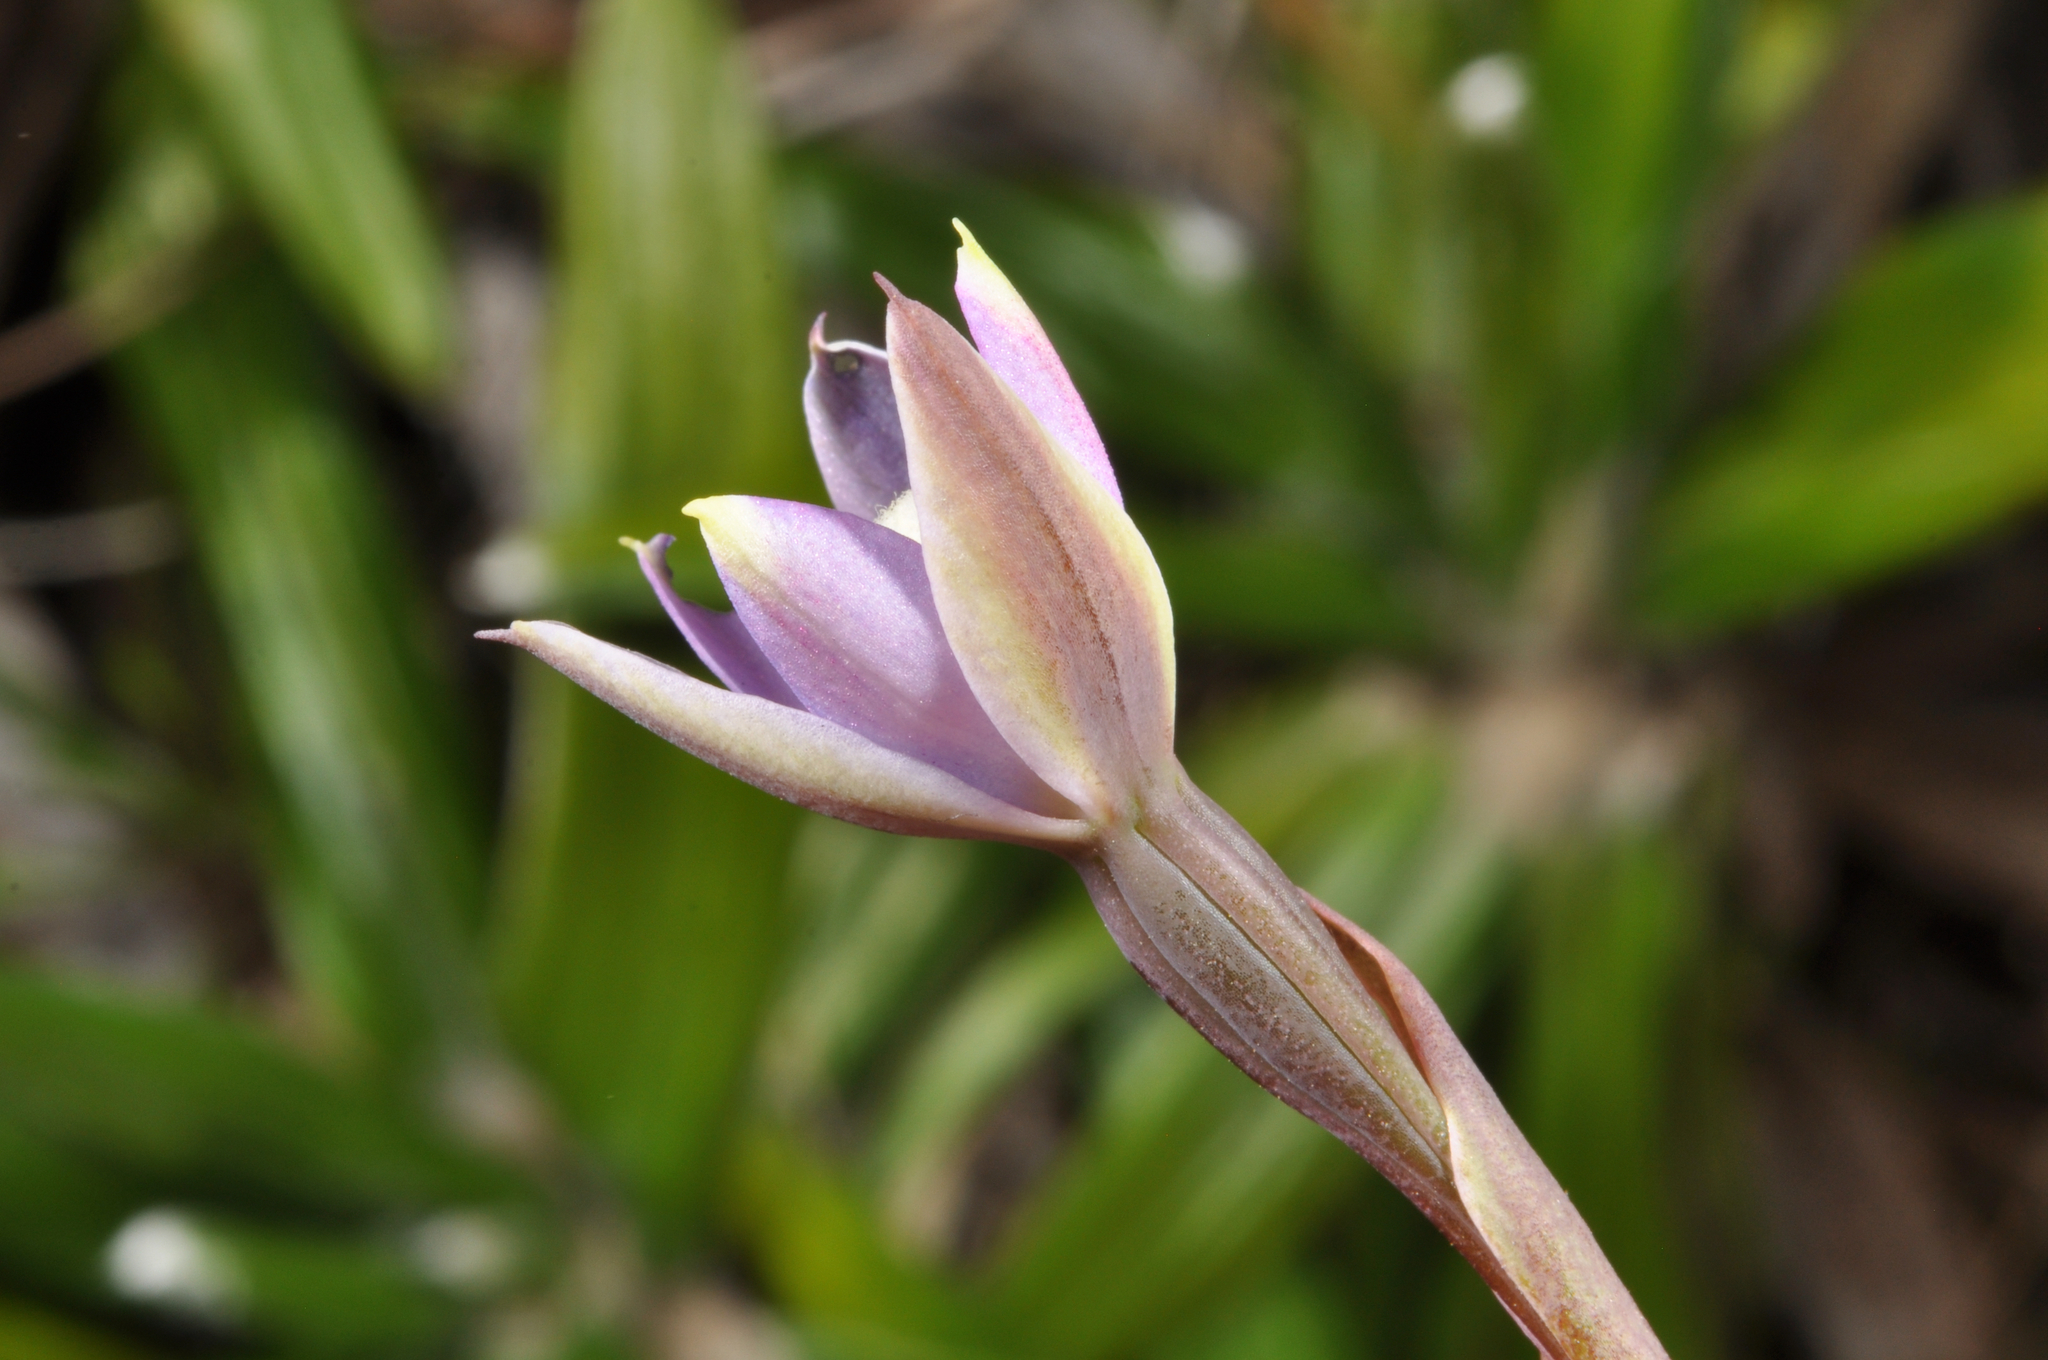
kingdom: Plantae
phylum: Tracheophyta
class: Liliopsida
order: Asparagales
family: Orchidaceae
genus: Thelymitra
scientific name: Thelymitra hatchii
